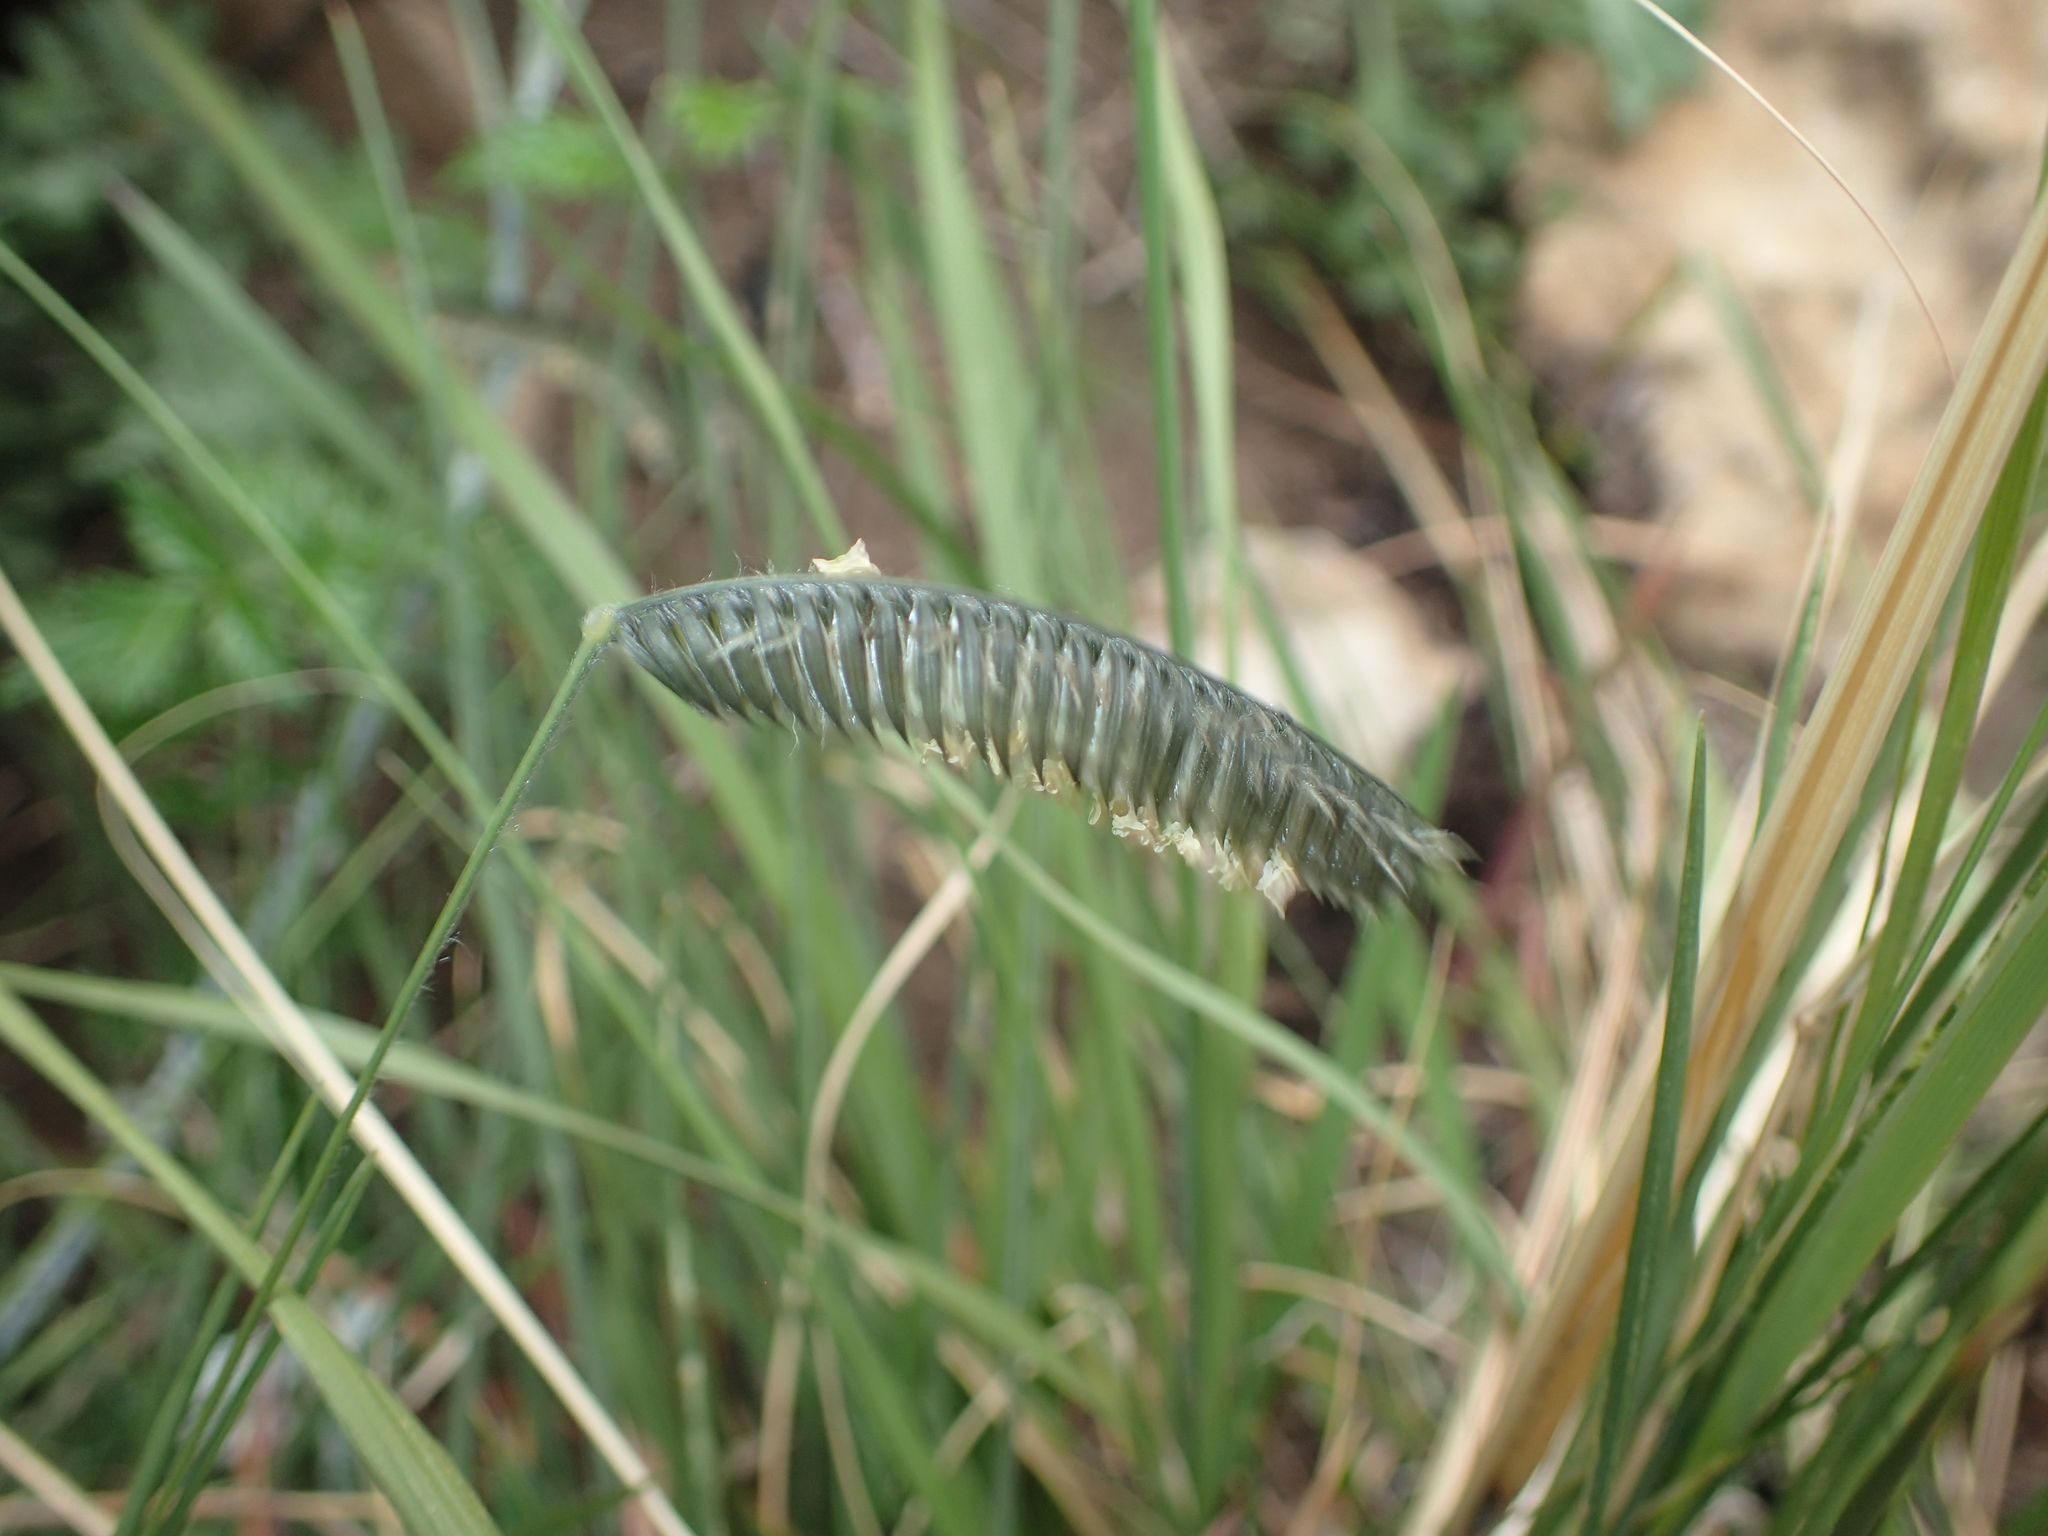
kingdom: Plantae
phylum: Tracheophyta
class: Liliopsida
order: Poales
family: Poaceae
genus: Harpochloa
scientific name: Harpochloa falx
